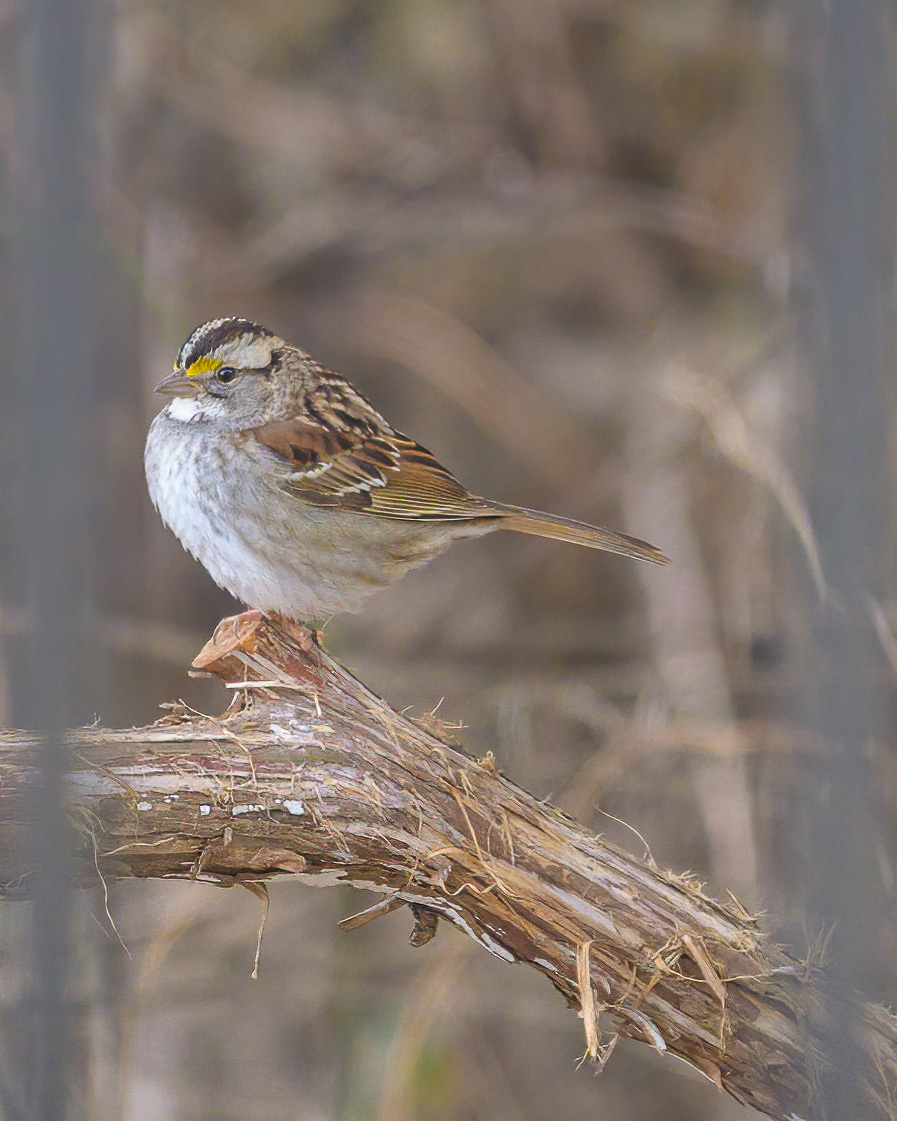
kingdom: Animalia
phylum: Chordata
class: Aves
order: Passeriformes
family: Passerellidae
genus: Zonotrichia
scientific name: Zonotrichia albicollis
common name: White-throated sparrow
